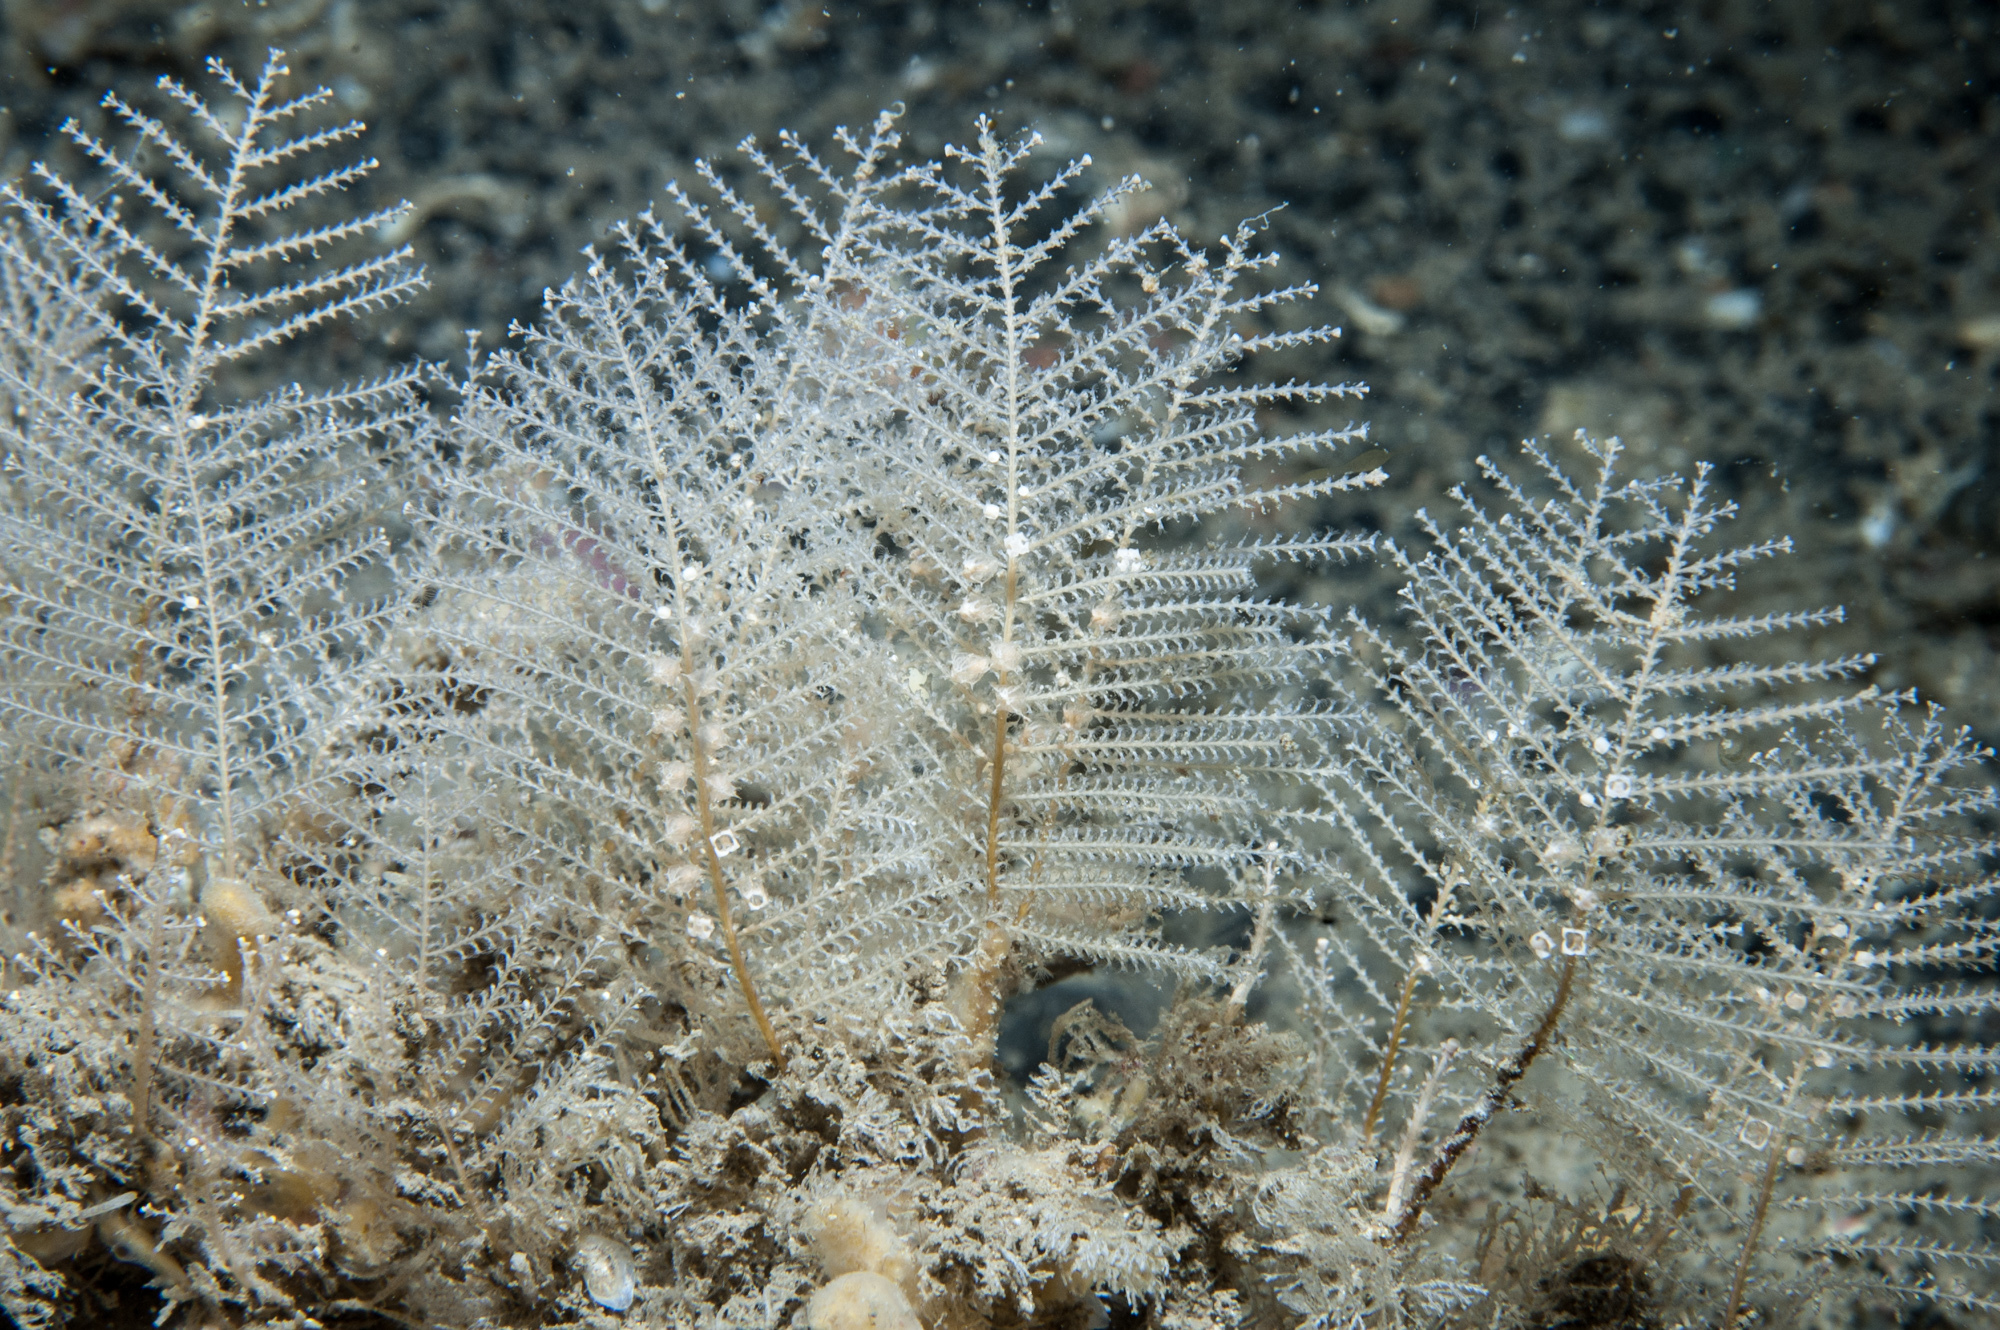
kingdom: Animalia
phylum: Cnidaria
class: Hydrozoa
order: Leptothecata
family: Sertulariidae
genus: Diphasia
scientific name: Diphasia margareta
